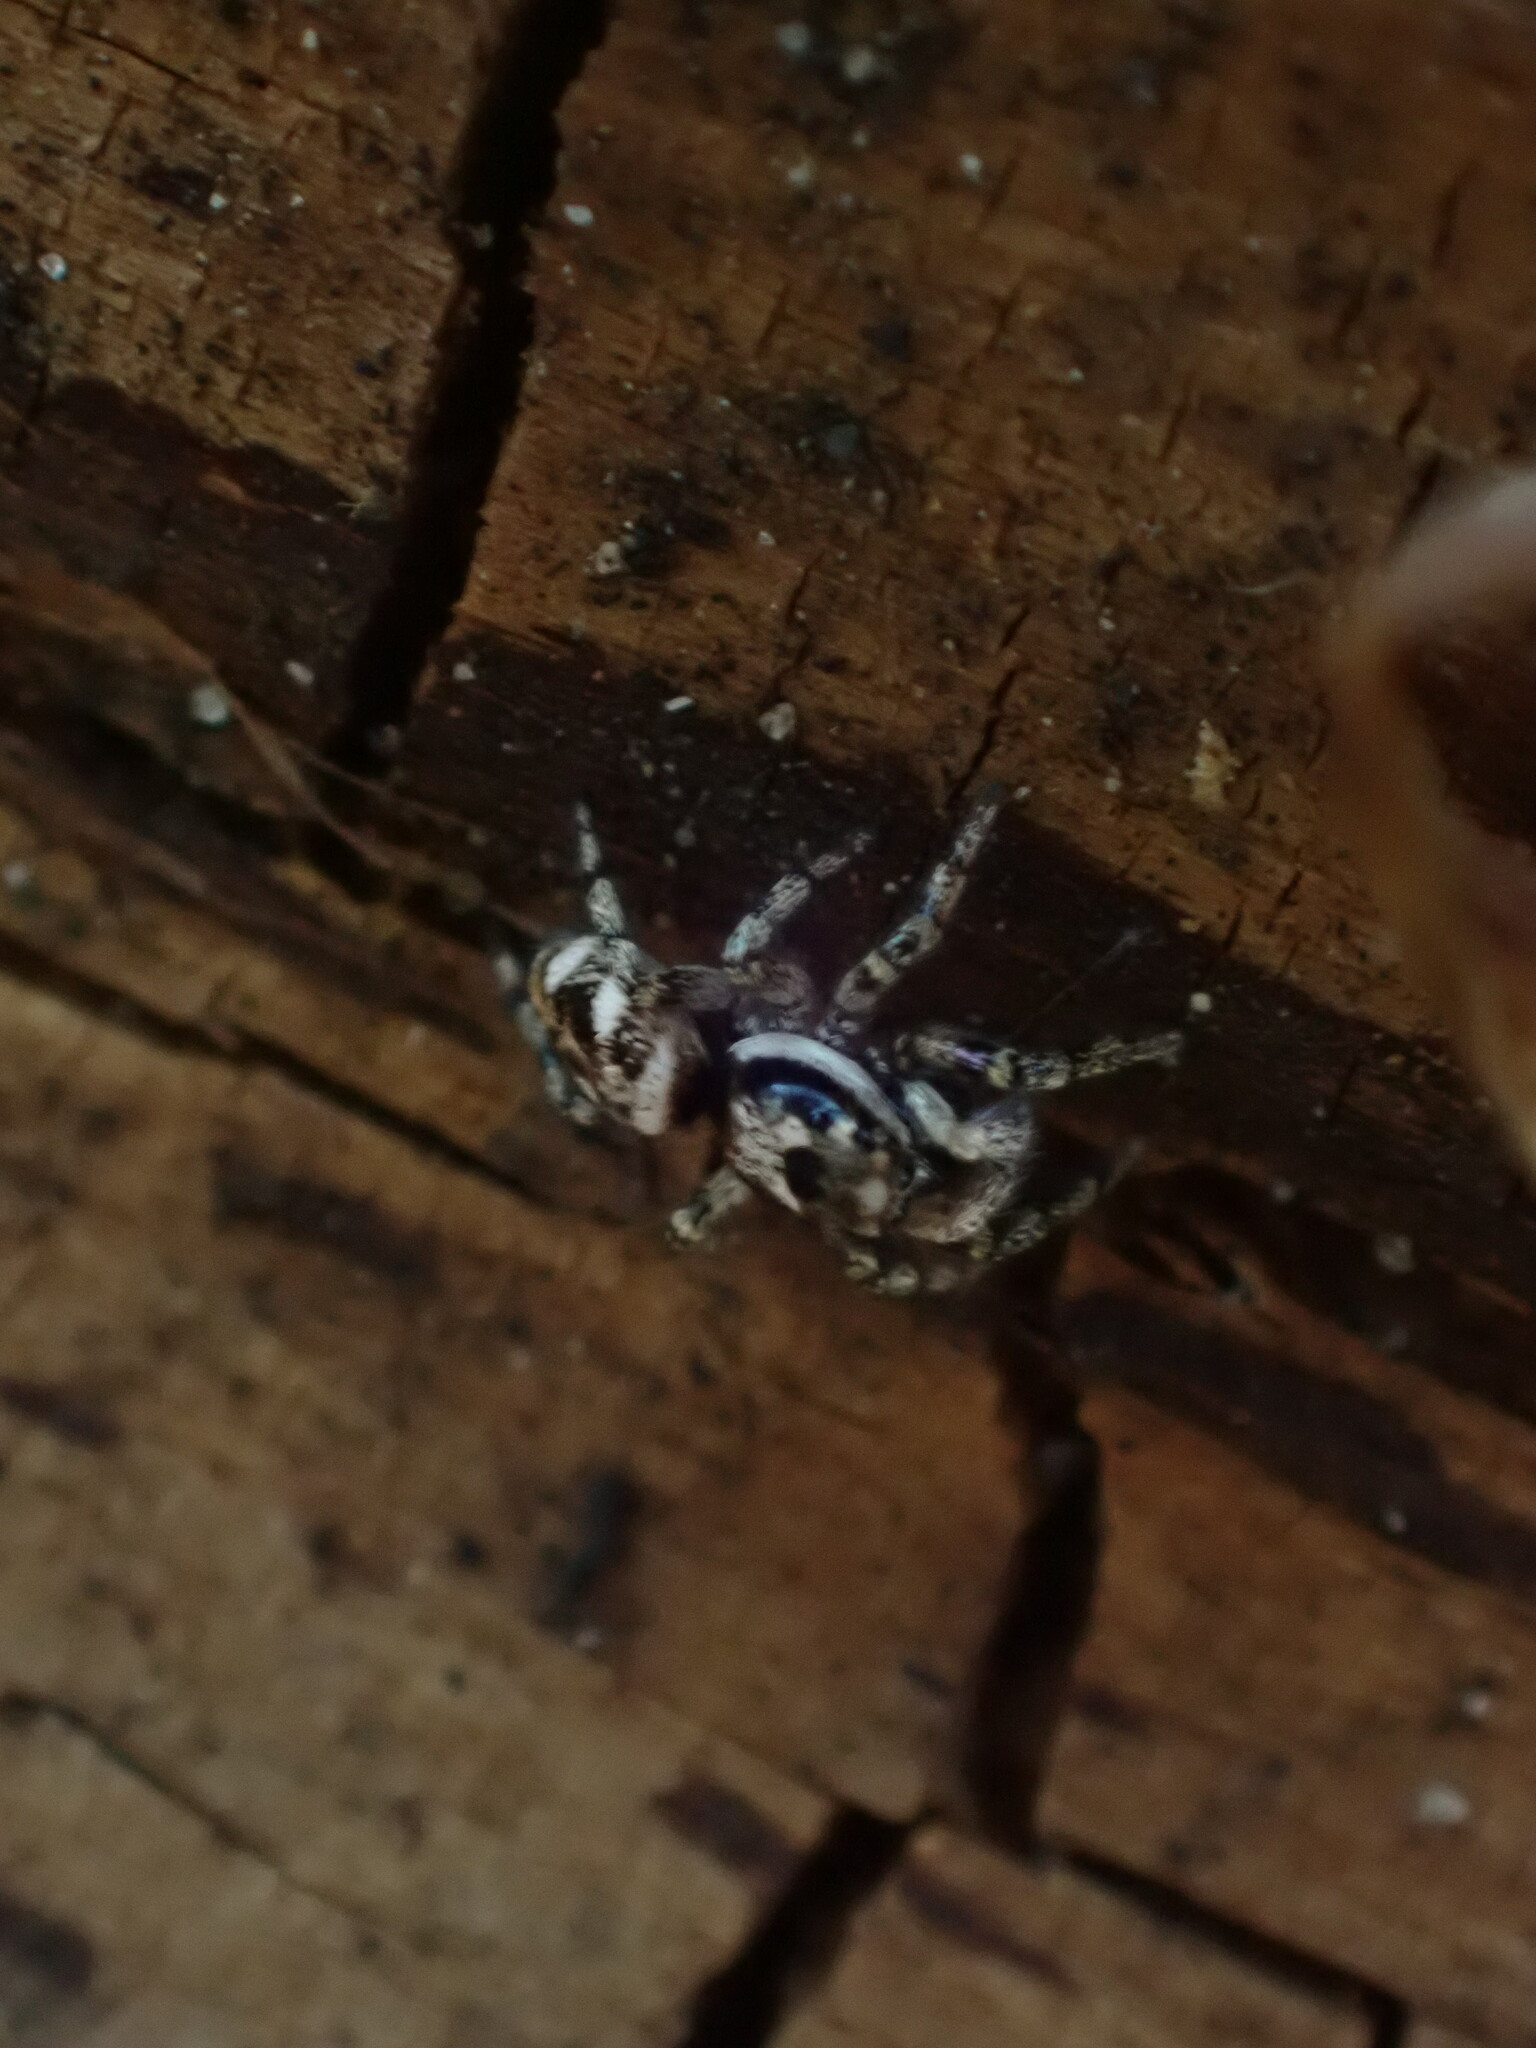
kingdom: Animalia
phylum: Arthropoda
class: Arachnida
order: Araneae
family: Salticidae
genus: Salticus
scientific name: Salticus scenicus
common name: Zebra jumper
